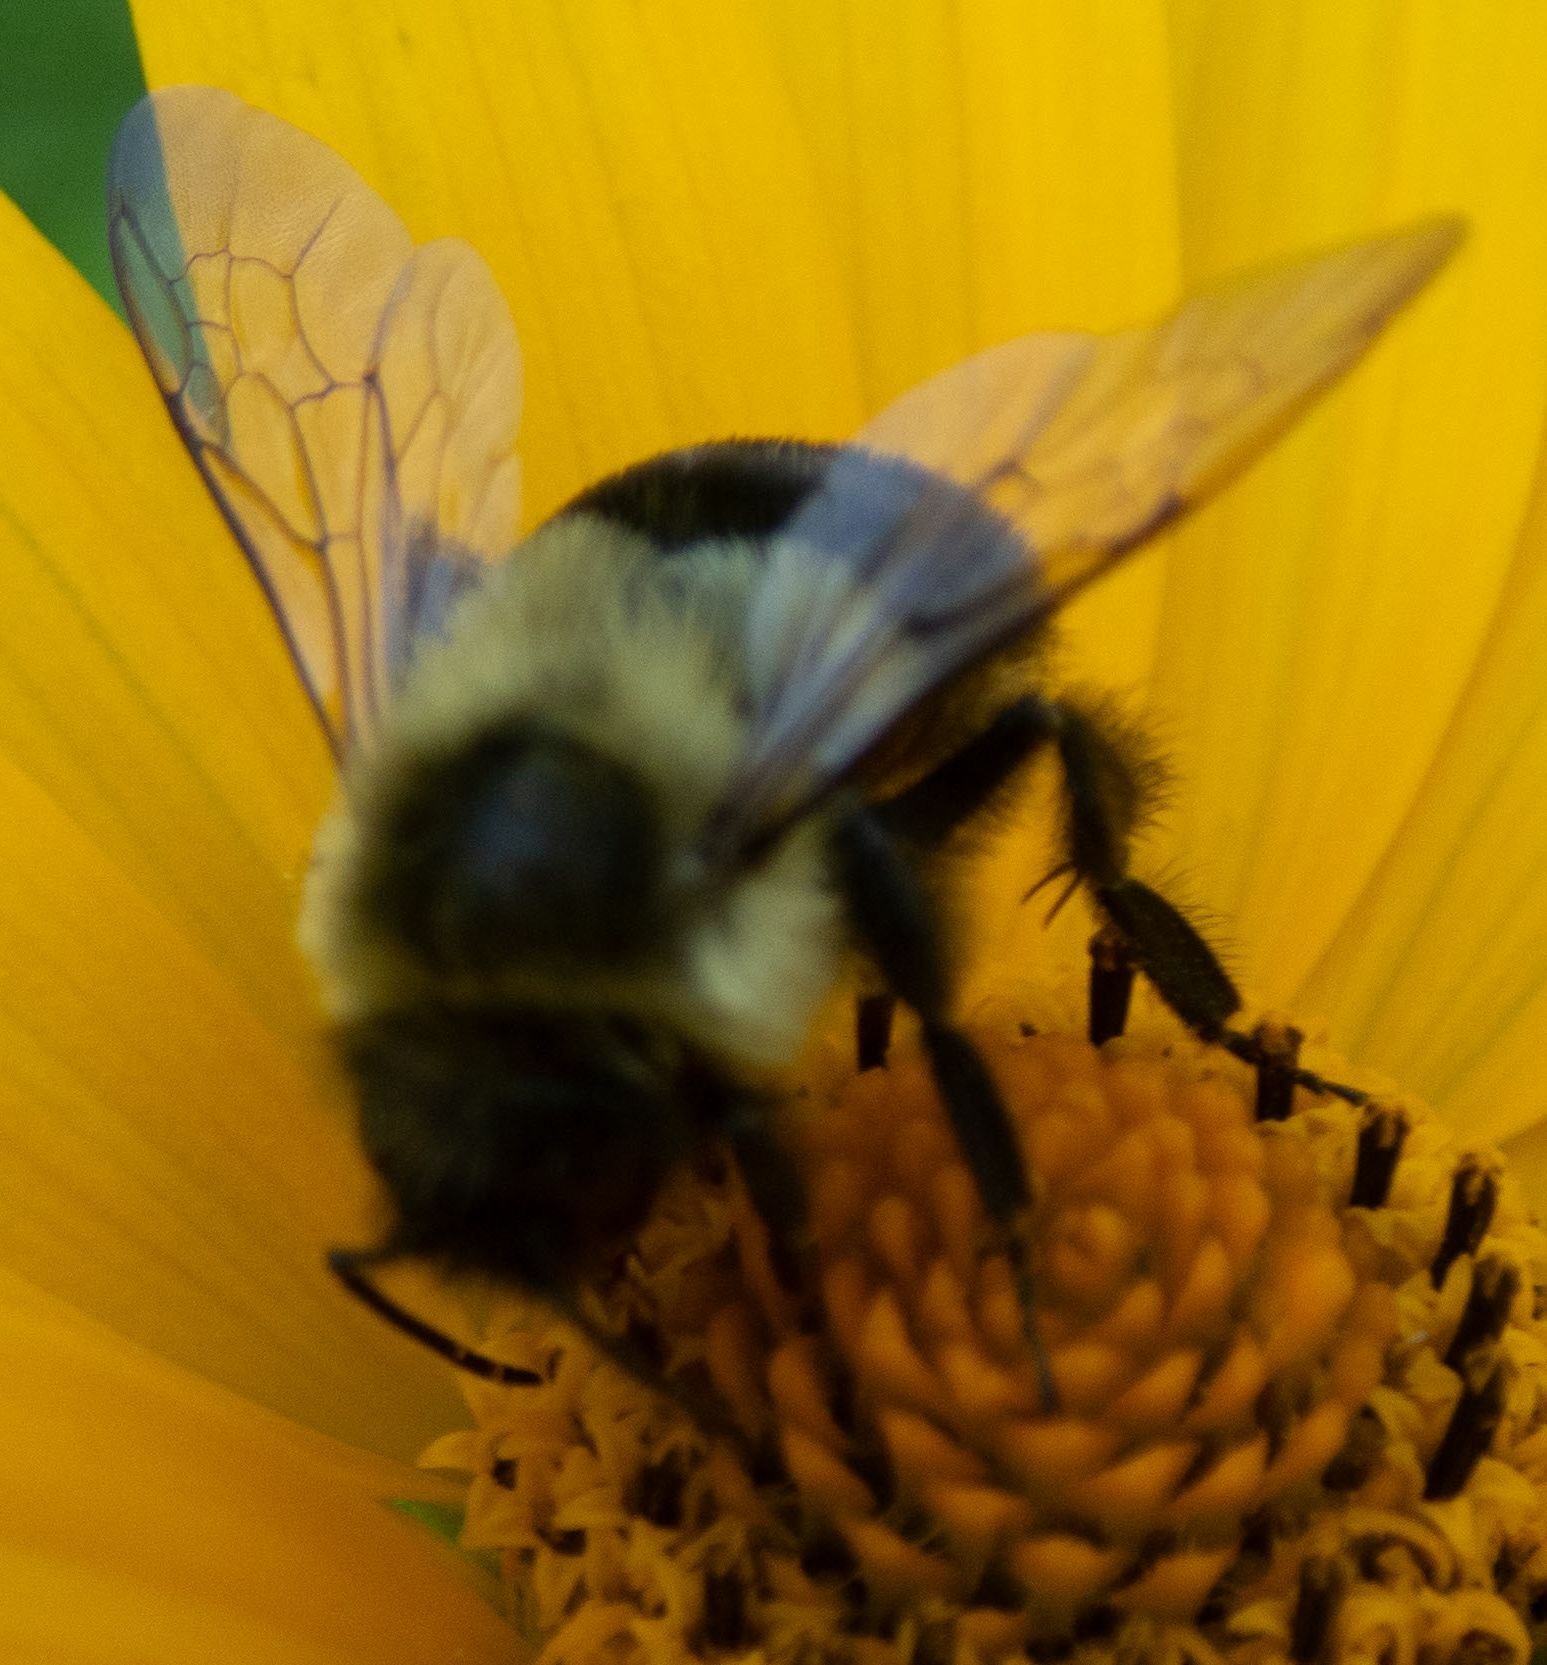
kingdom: Animalia
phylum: Arthropoda
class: Insecta
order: Hymenoptera
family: Apidae
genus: Bombus
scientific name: Bombus impatiens
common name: Common eastern bumble bee
